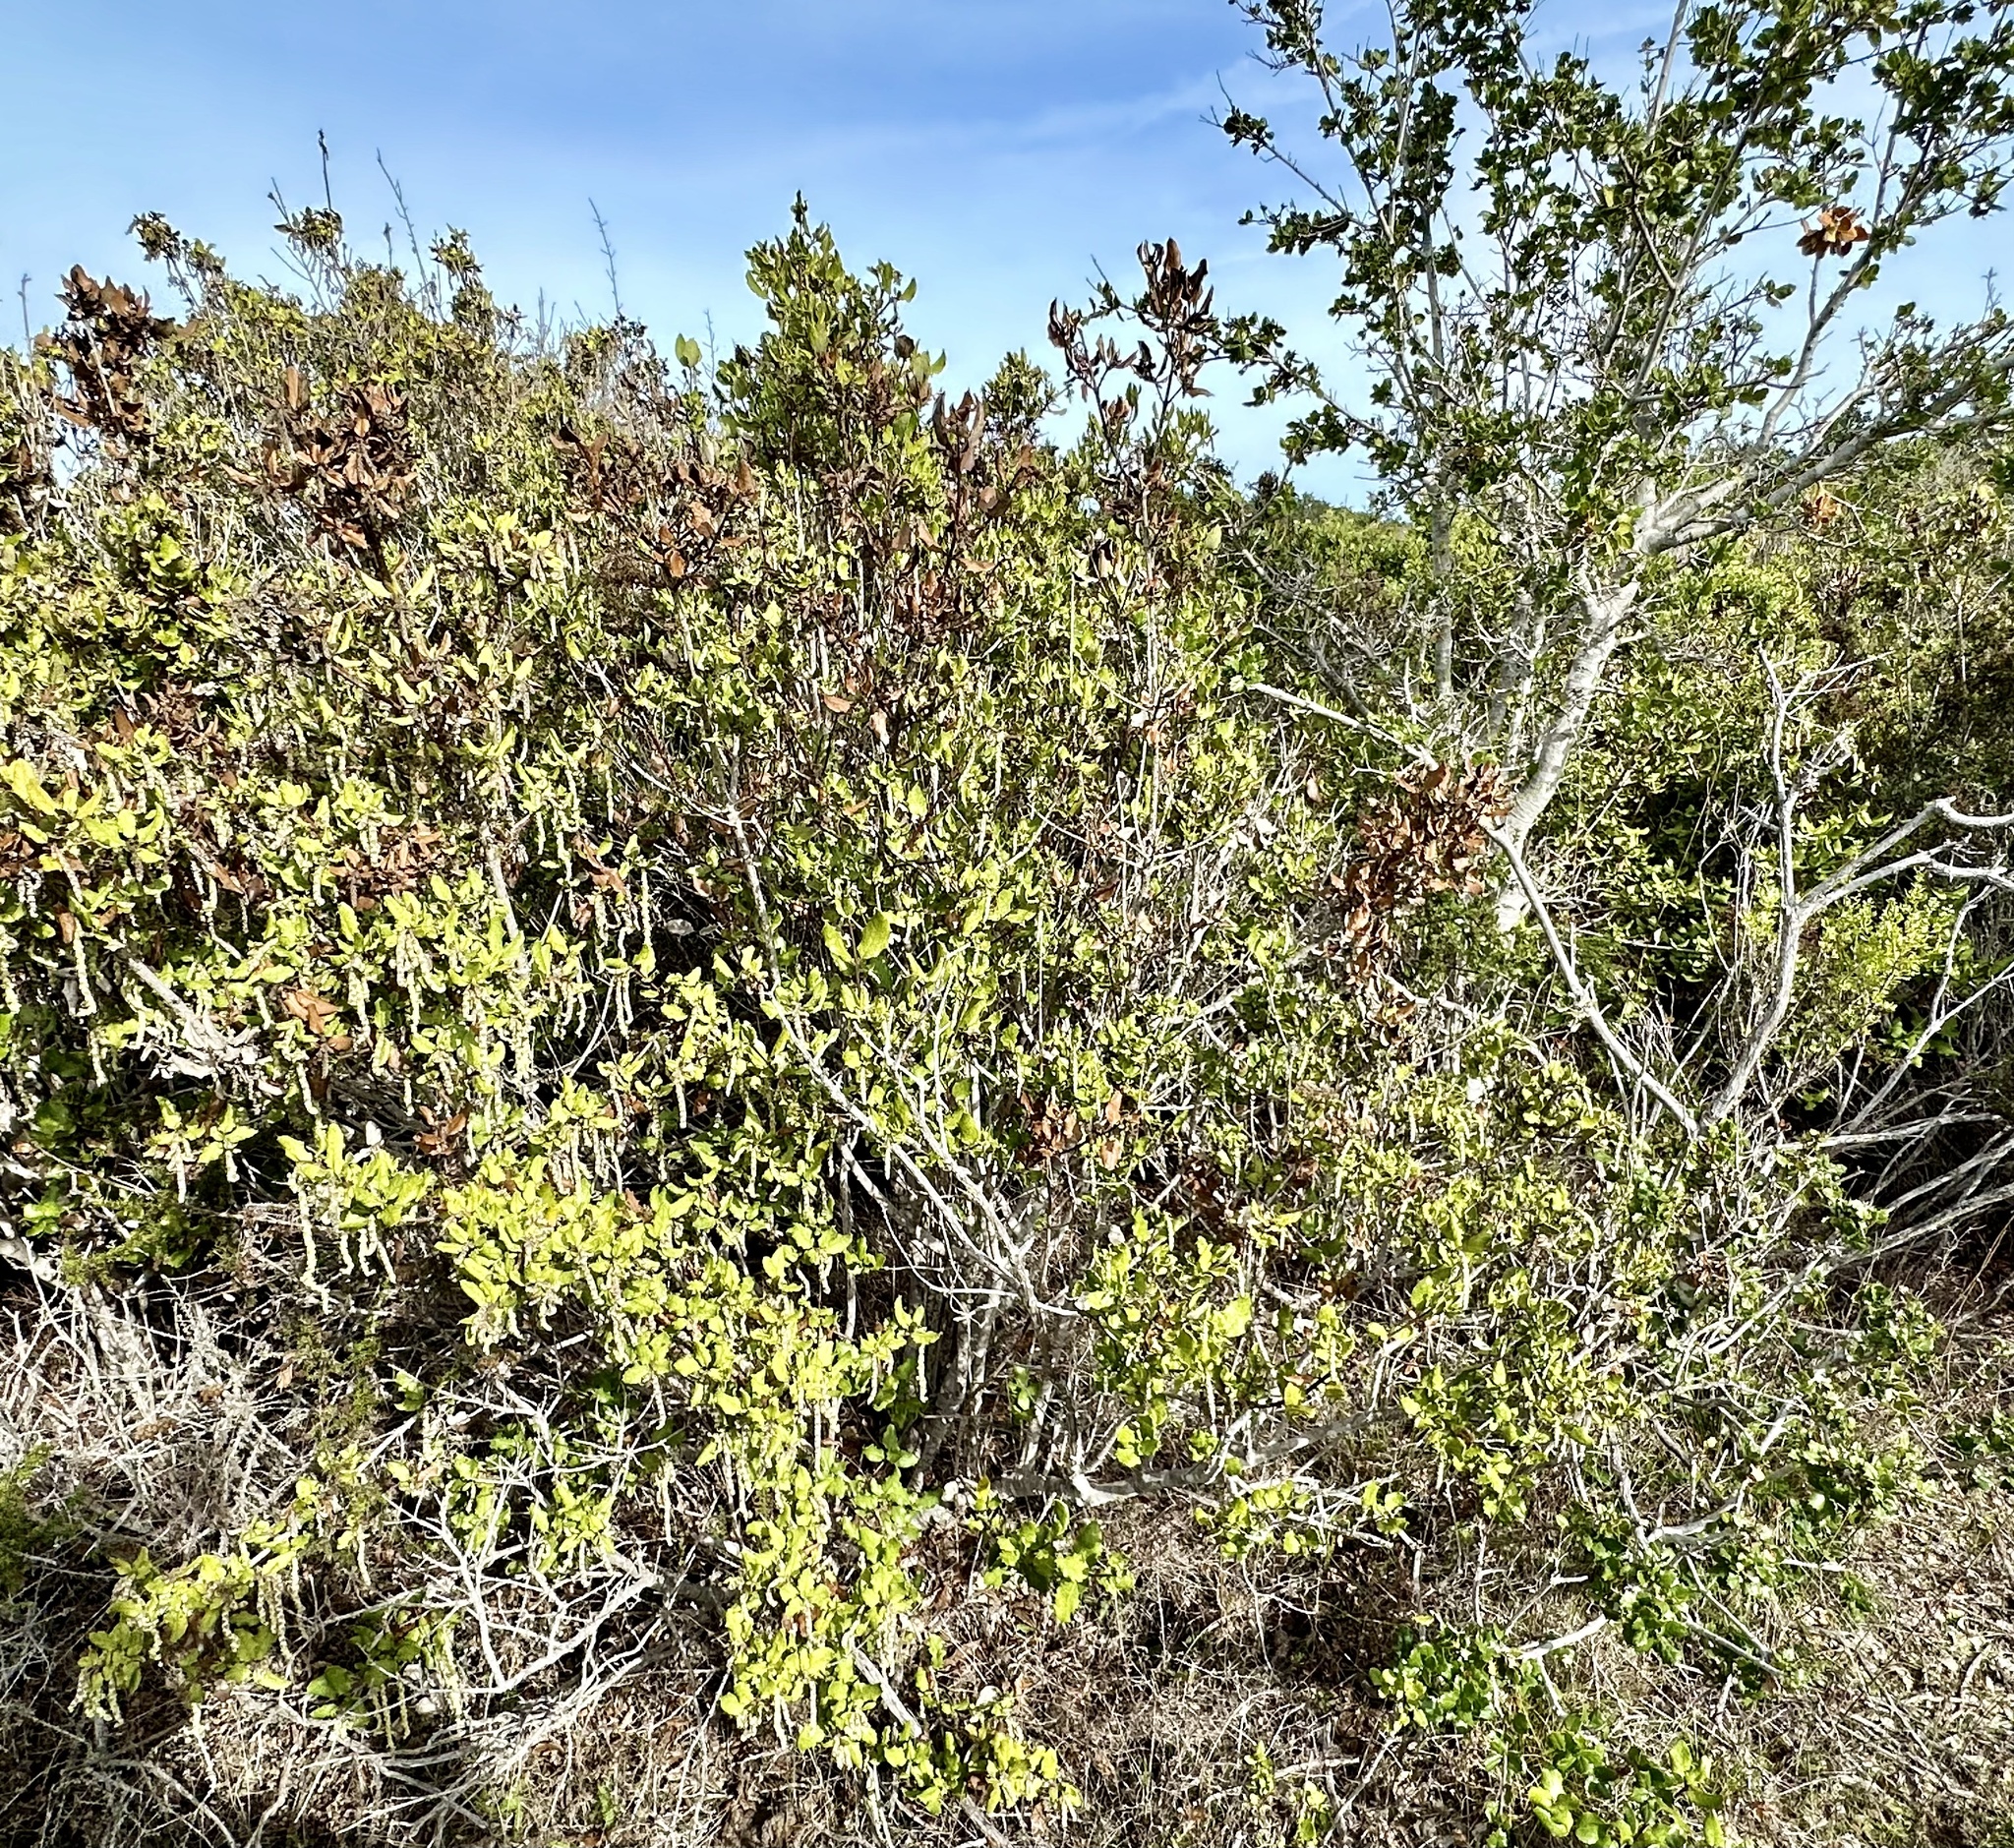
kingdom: Plantae
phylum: Tracheophyta
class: Magnoliopsida
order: Garryales
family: Garryaceae
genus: Garrya
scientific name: Garrya elliptica
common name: Silk-tassel
